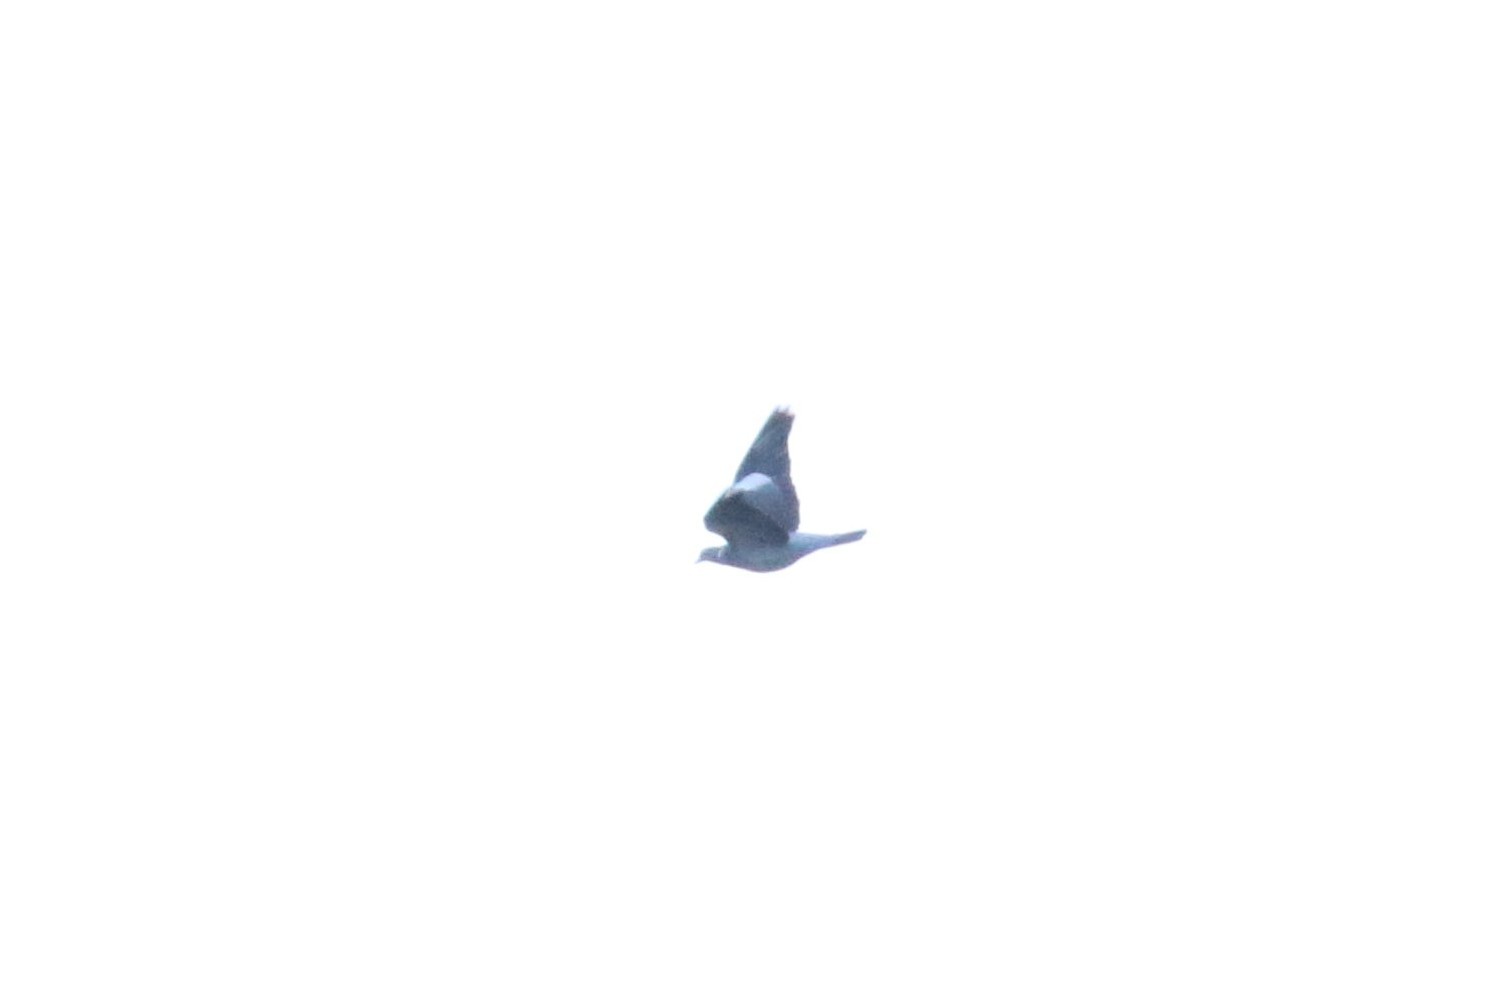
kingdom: Animalia
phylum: Chordata
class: Aves
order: Columbiformes
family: Columbidae
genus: Columba
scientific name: Columba palumbus
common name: Common wood pigeon
